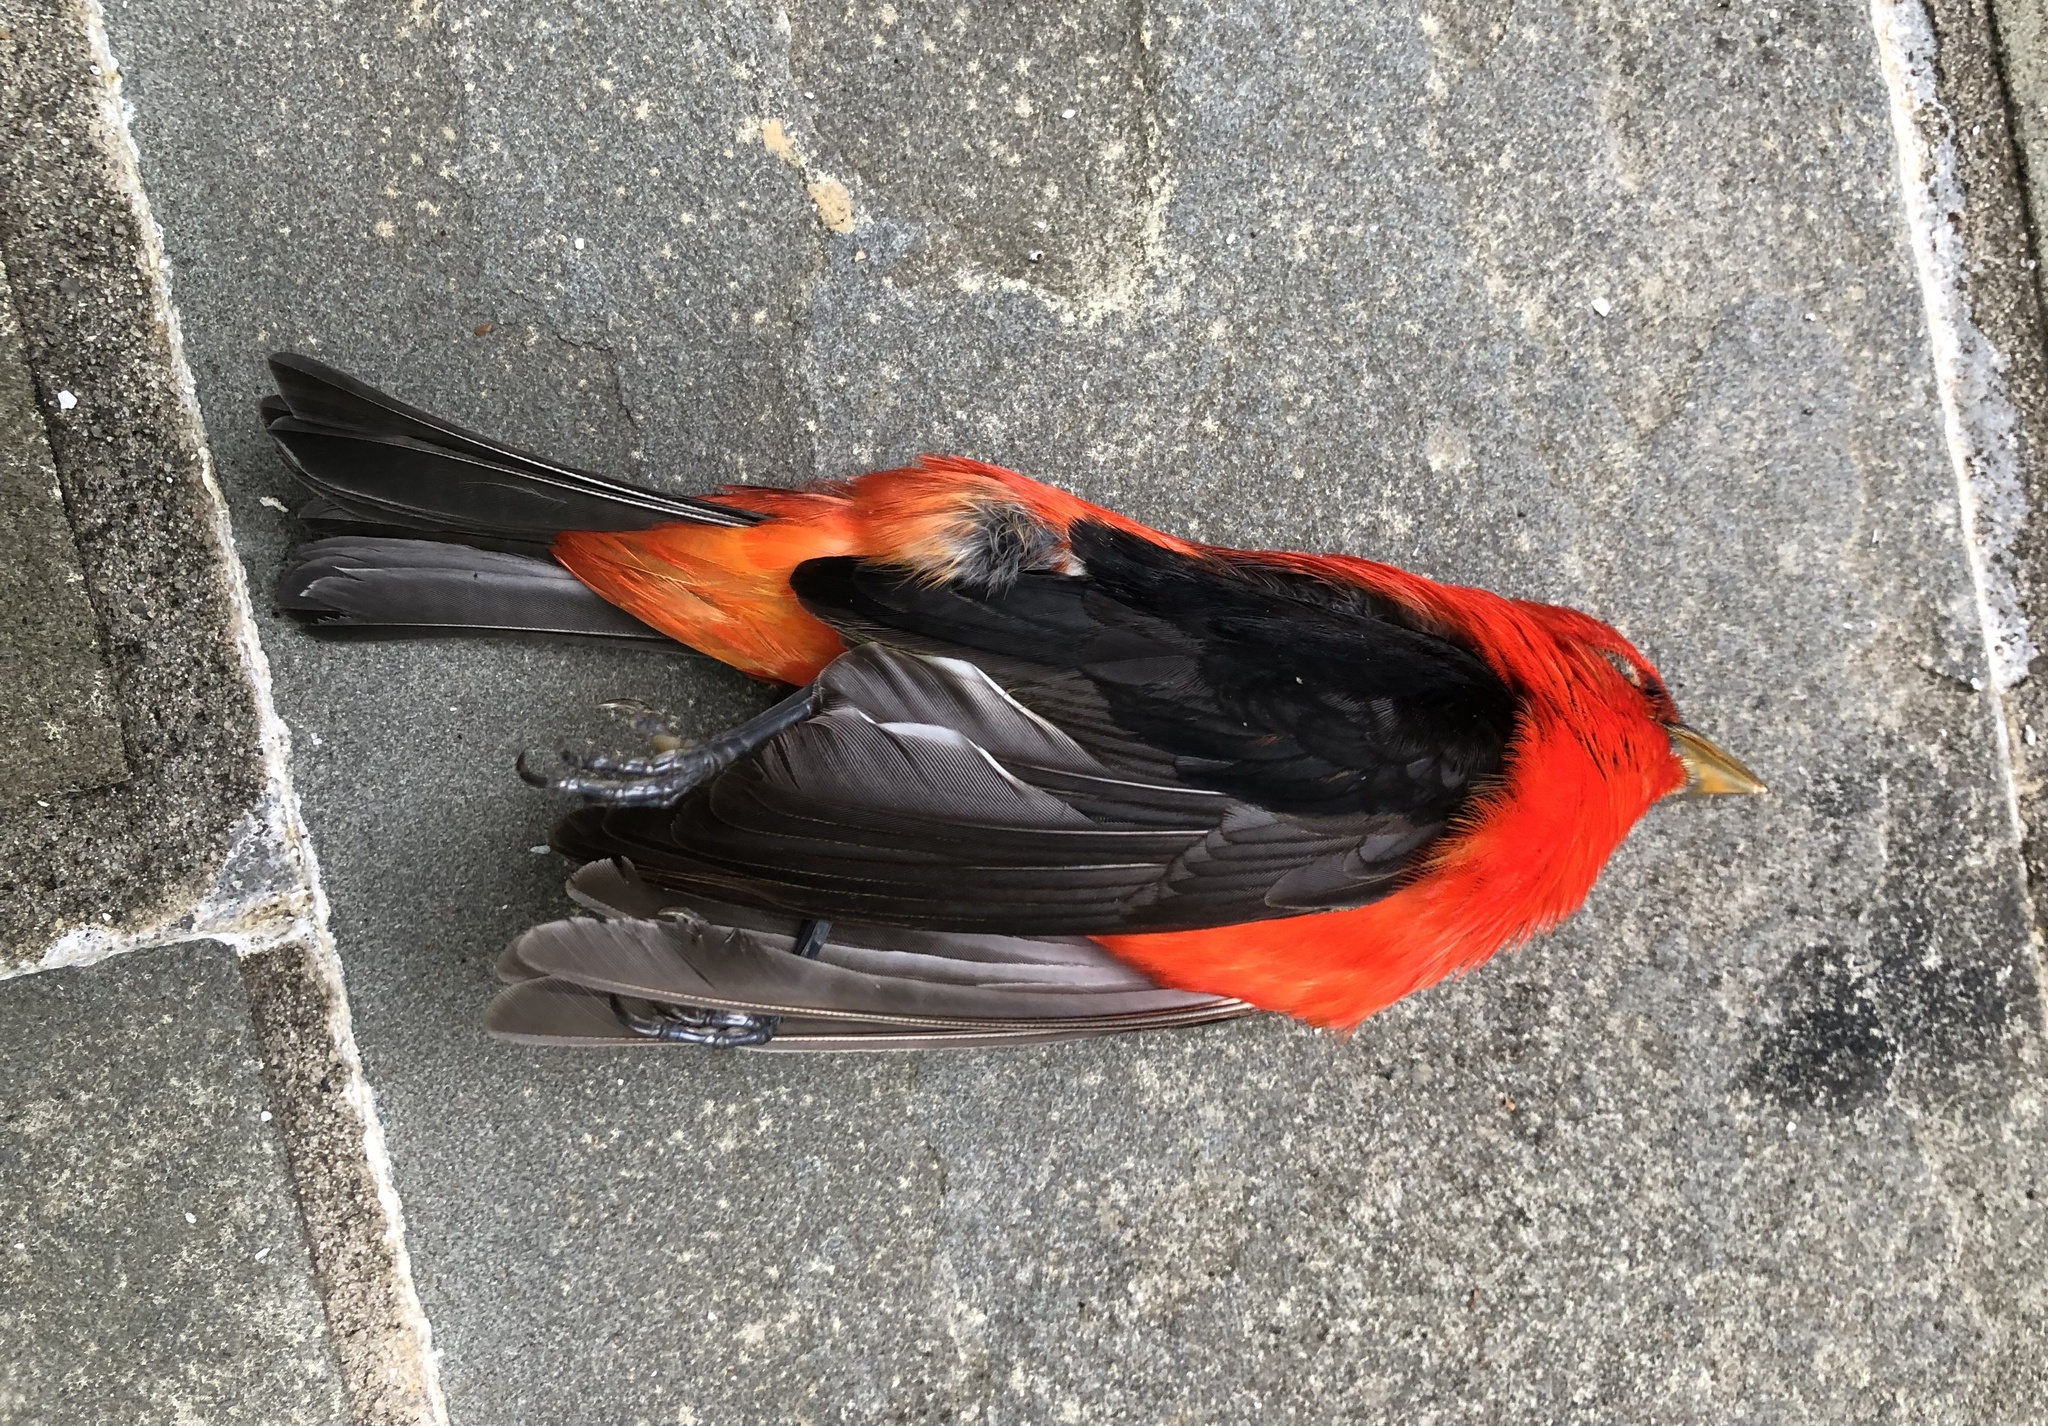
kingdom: Animalia
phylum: Chordata
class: Aves
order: Passeriformes
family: Cardinalidae
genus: Piranga
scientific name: Piranga olivacea
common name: Scarlet tanager
